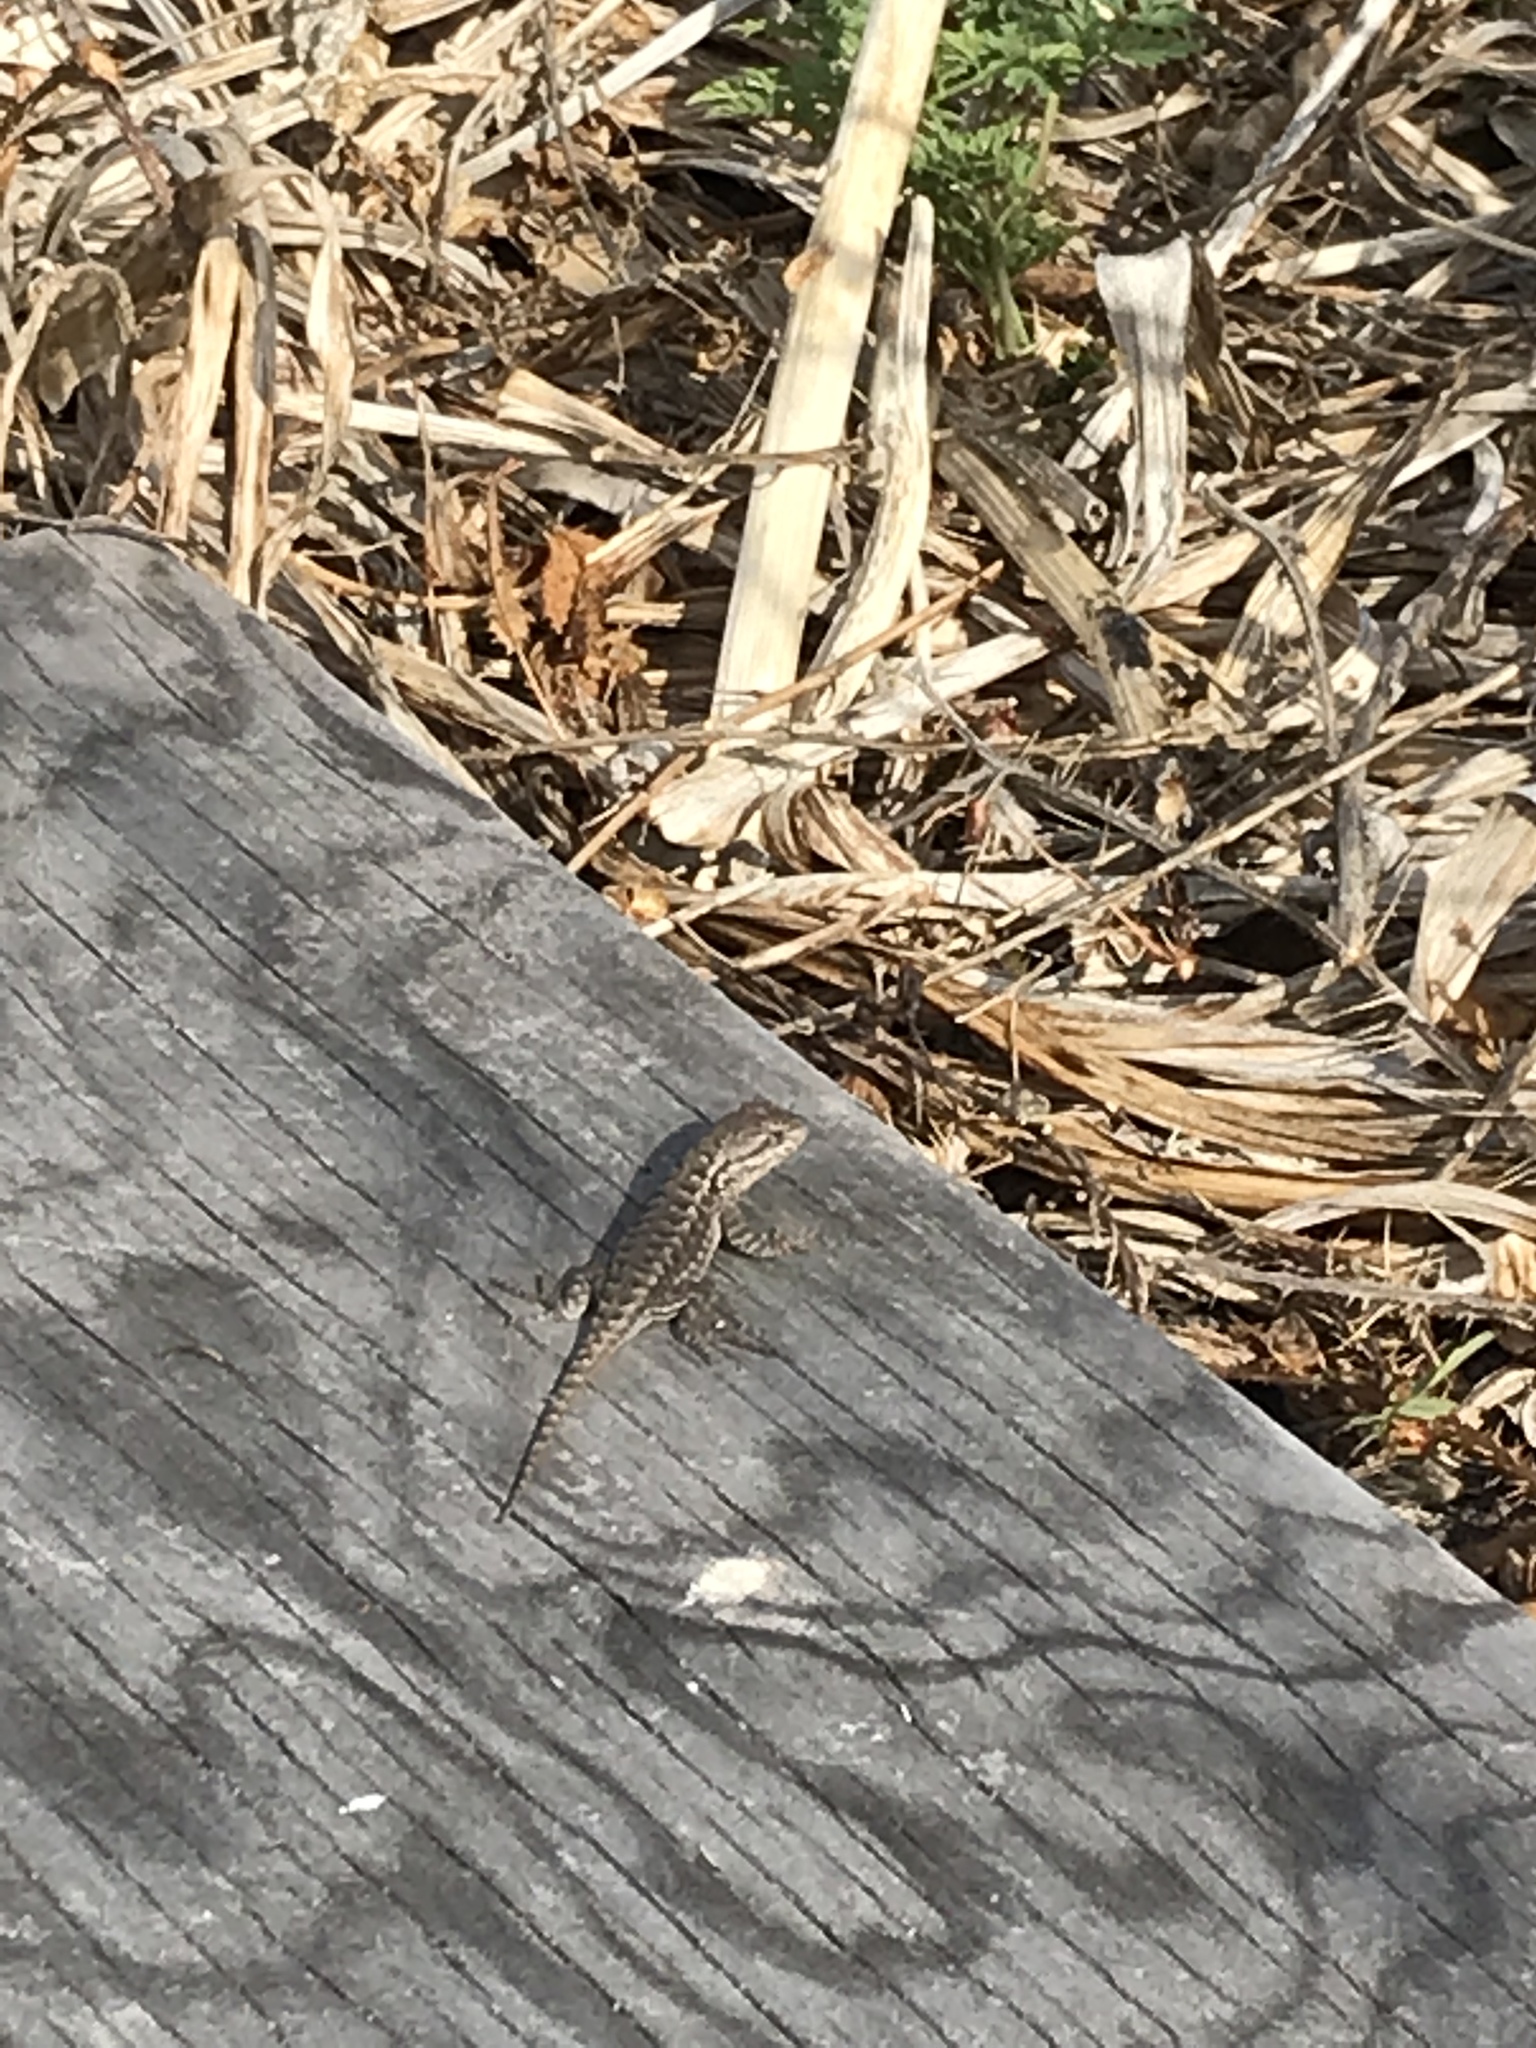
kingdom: Animalia
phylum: Chordata
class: Squamata
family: Phrynosomatidae
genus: Sceloporus
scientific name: Sceloporus occidentalis
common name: Western fence lizard
